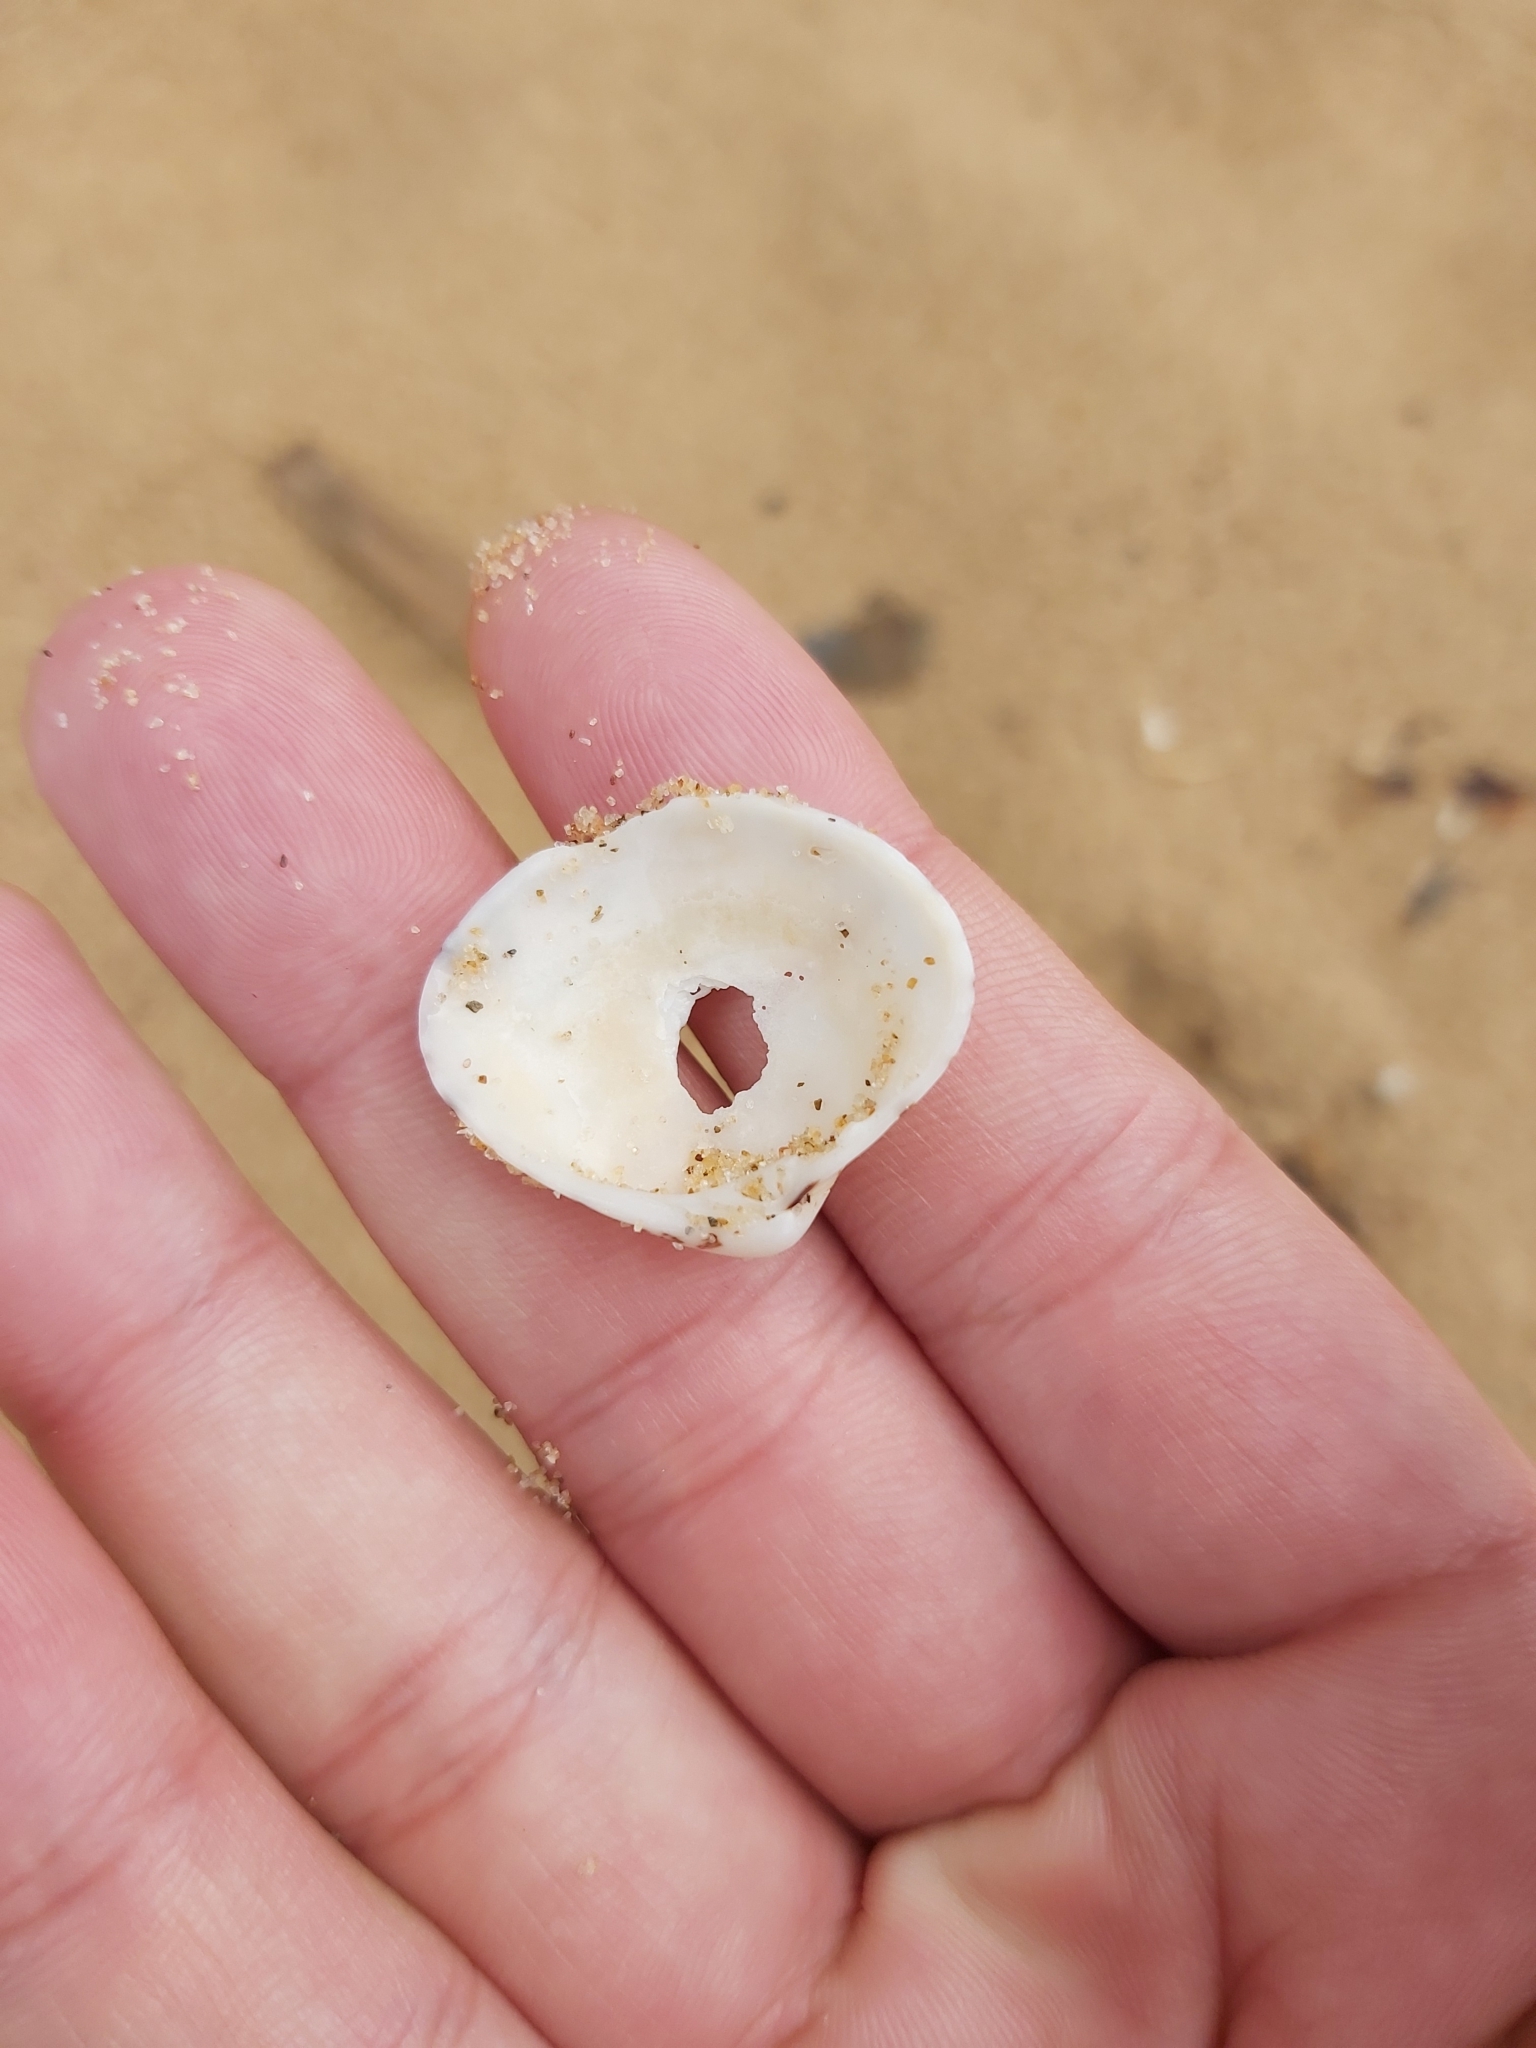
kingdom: Animalia
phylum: Mollusca
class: Bivalvia
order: Venerida
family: Veneridae
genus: Lioconcha
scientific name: Lioconcha fastigiata
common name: Clam
